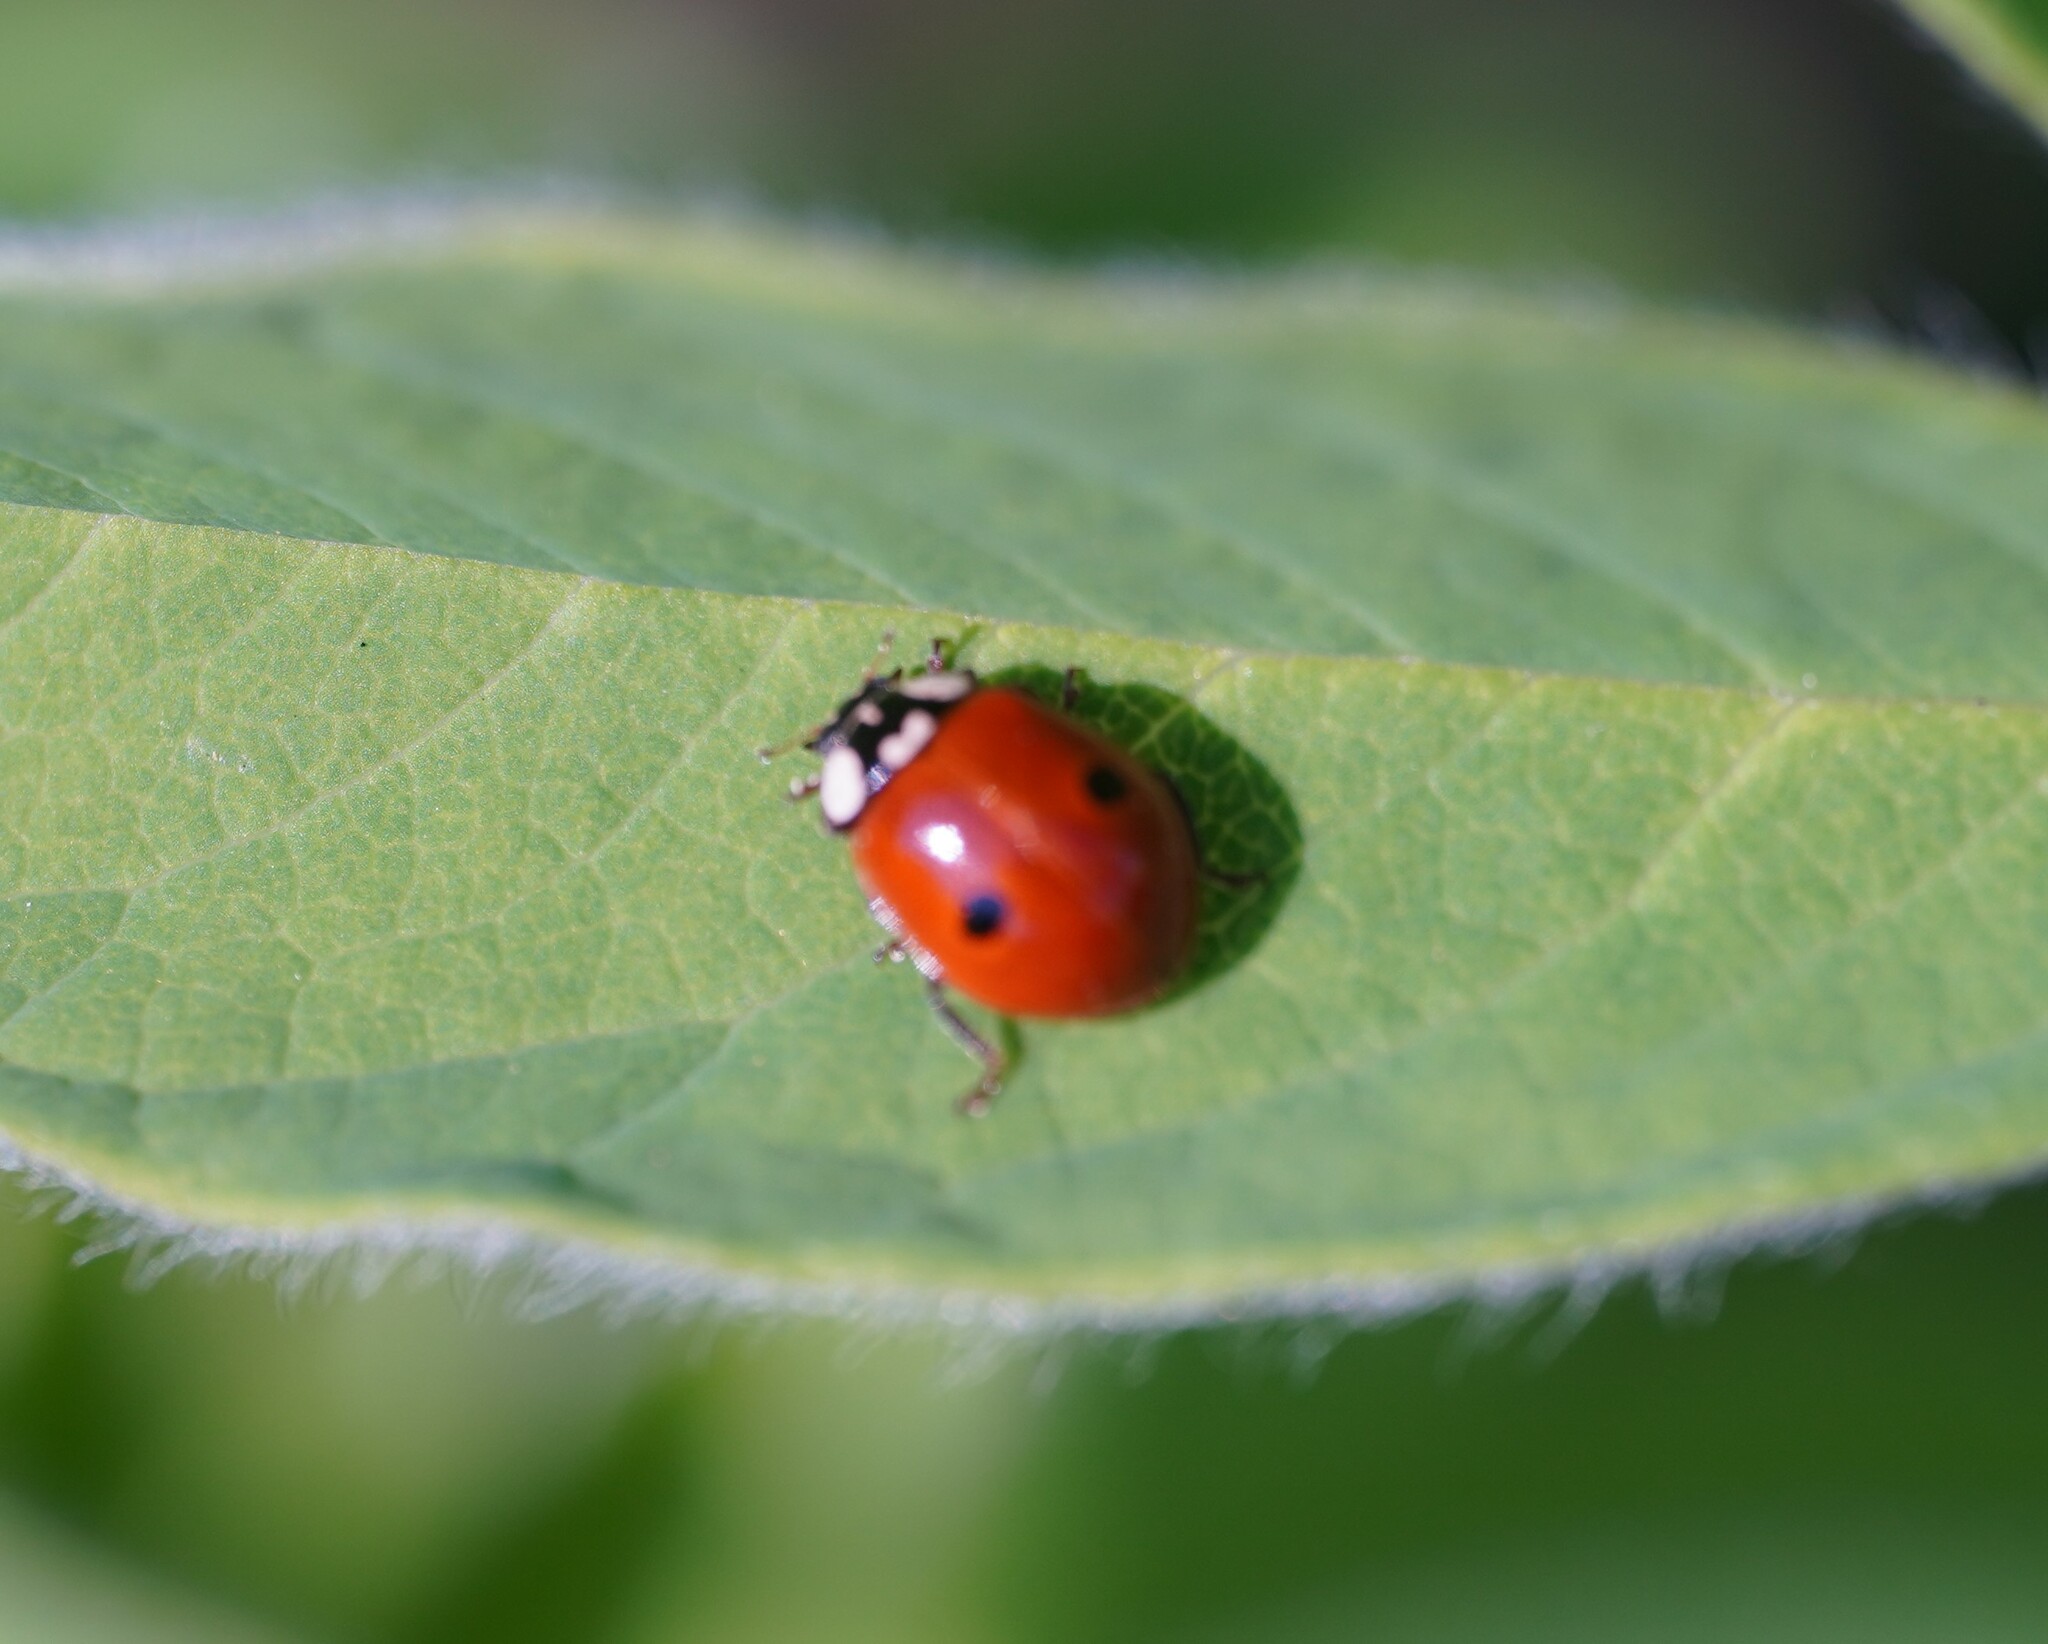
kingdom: Animalia
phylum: Arthropoda
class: Insecta
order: Coleoptera
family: Coccinellidae
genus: Adalia
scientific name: Adalia bipunctata
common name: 2-spot ladybird
